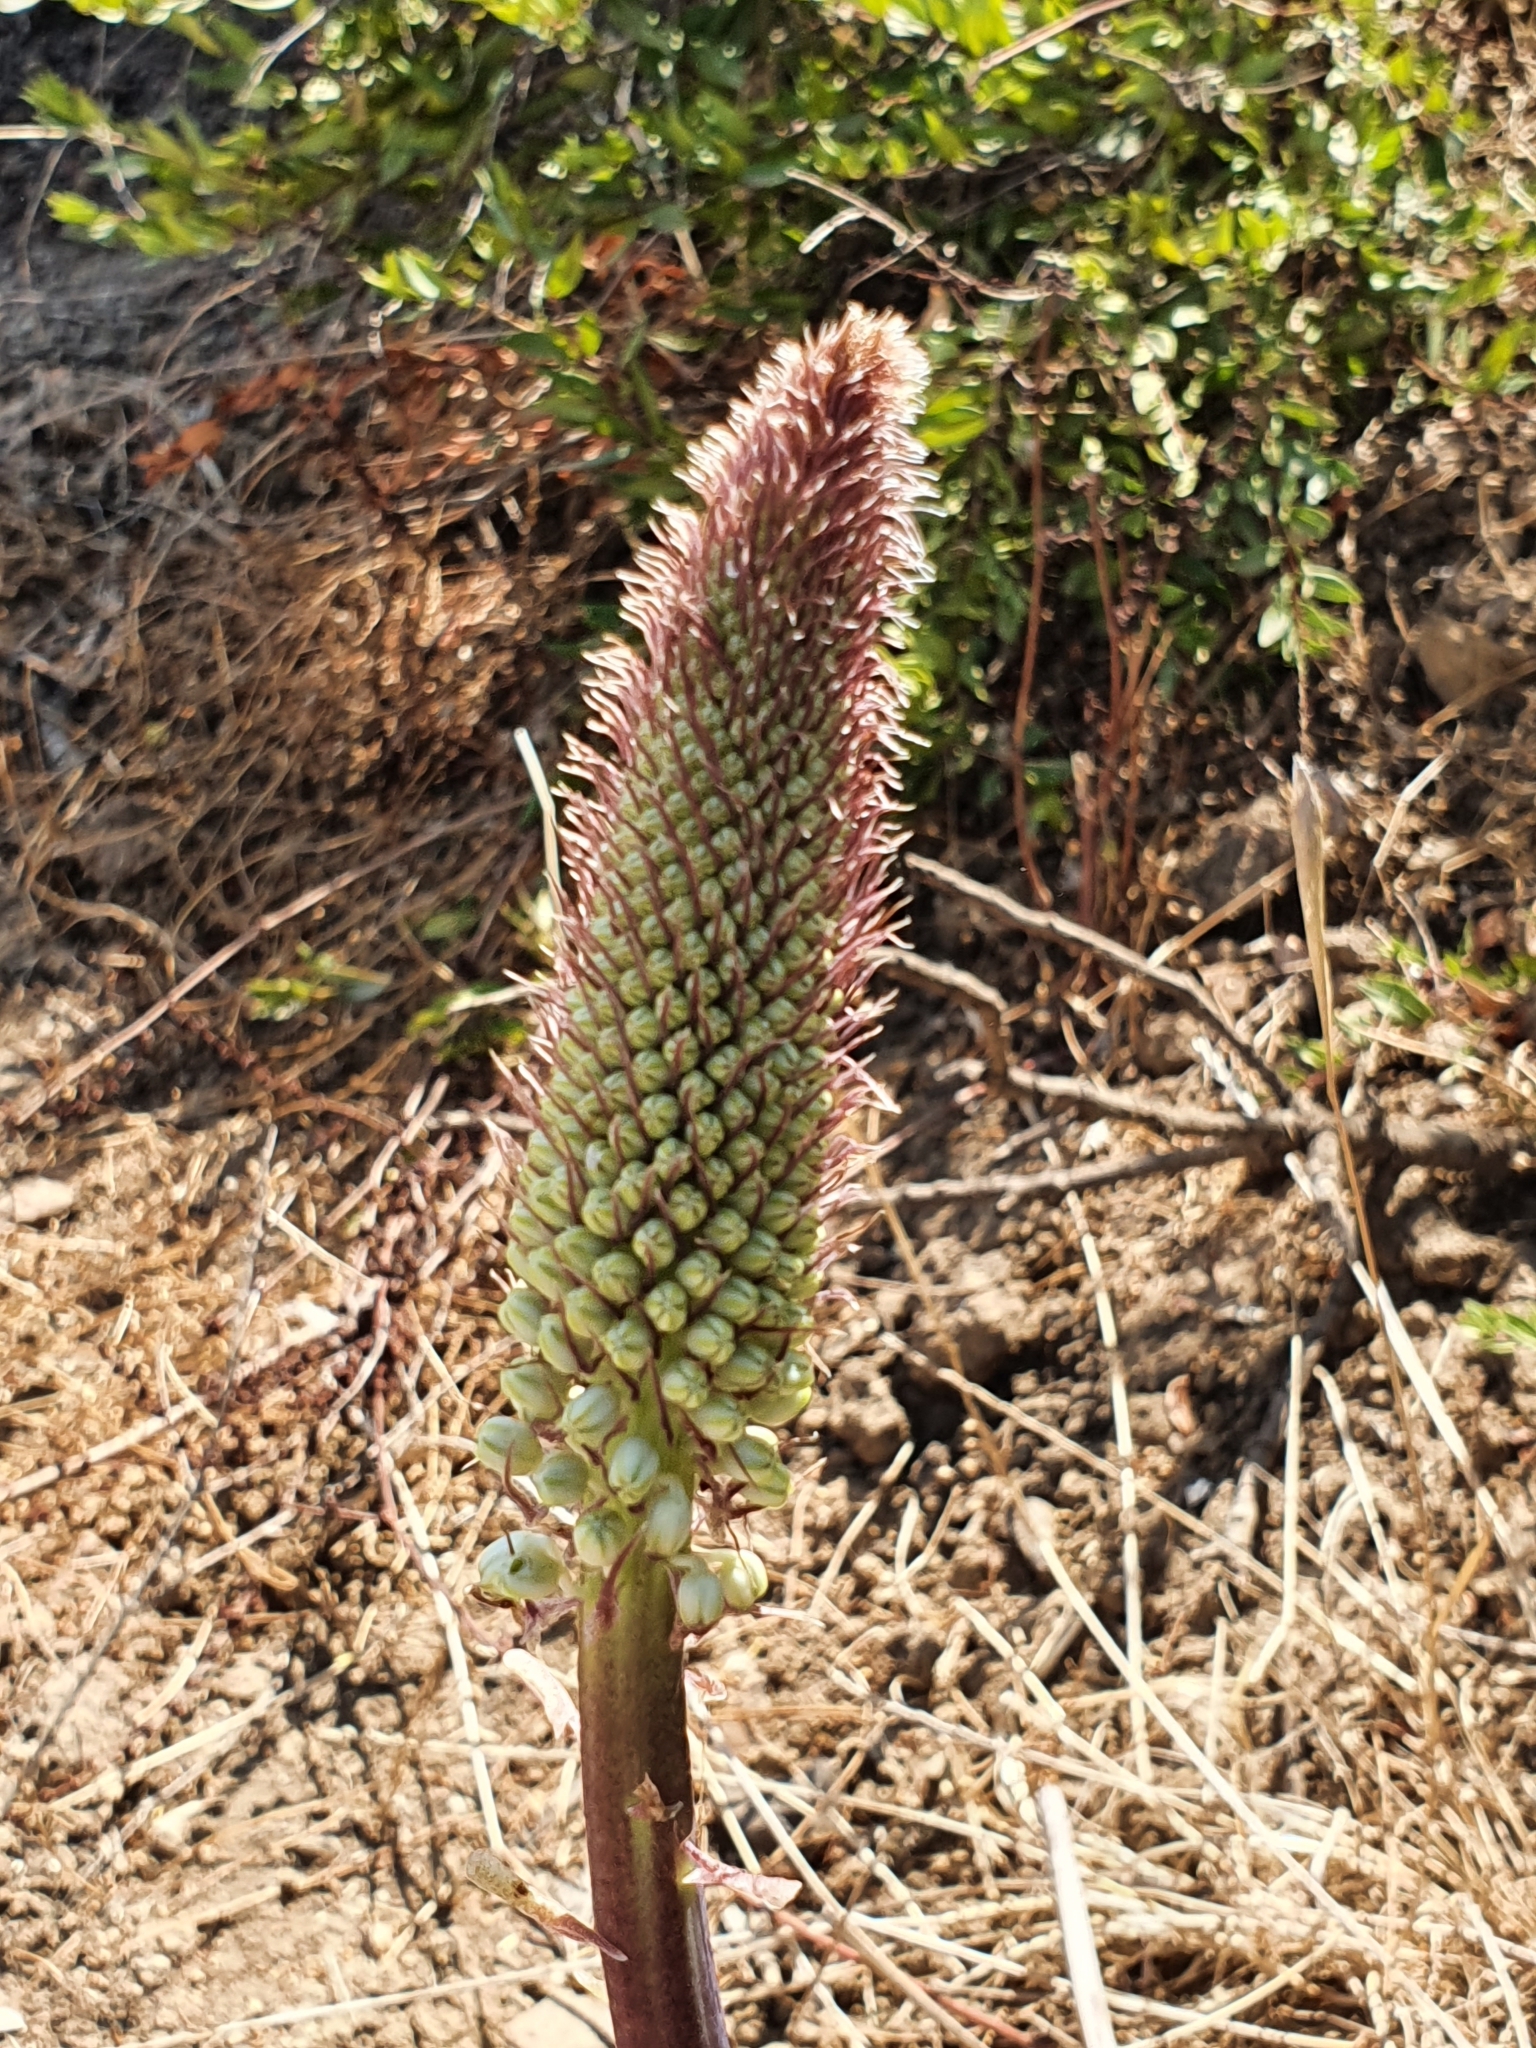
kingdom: Plantae
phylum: Tracheophyta
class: Liliopsida
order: Asparagales
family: Asparagaceae
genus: Drimia
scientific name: Drimia numidica
